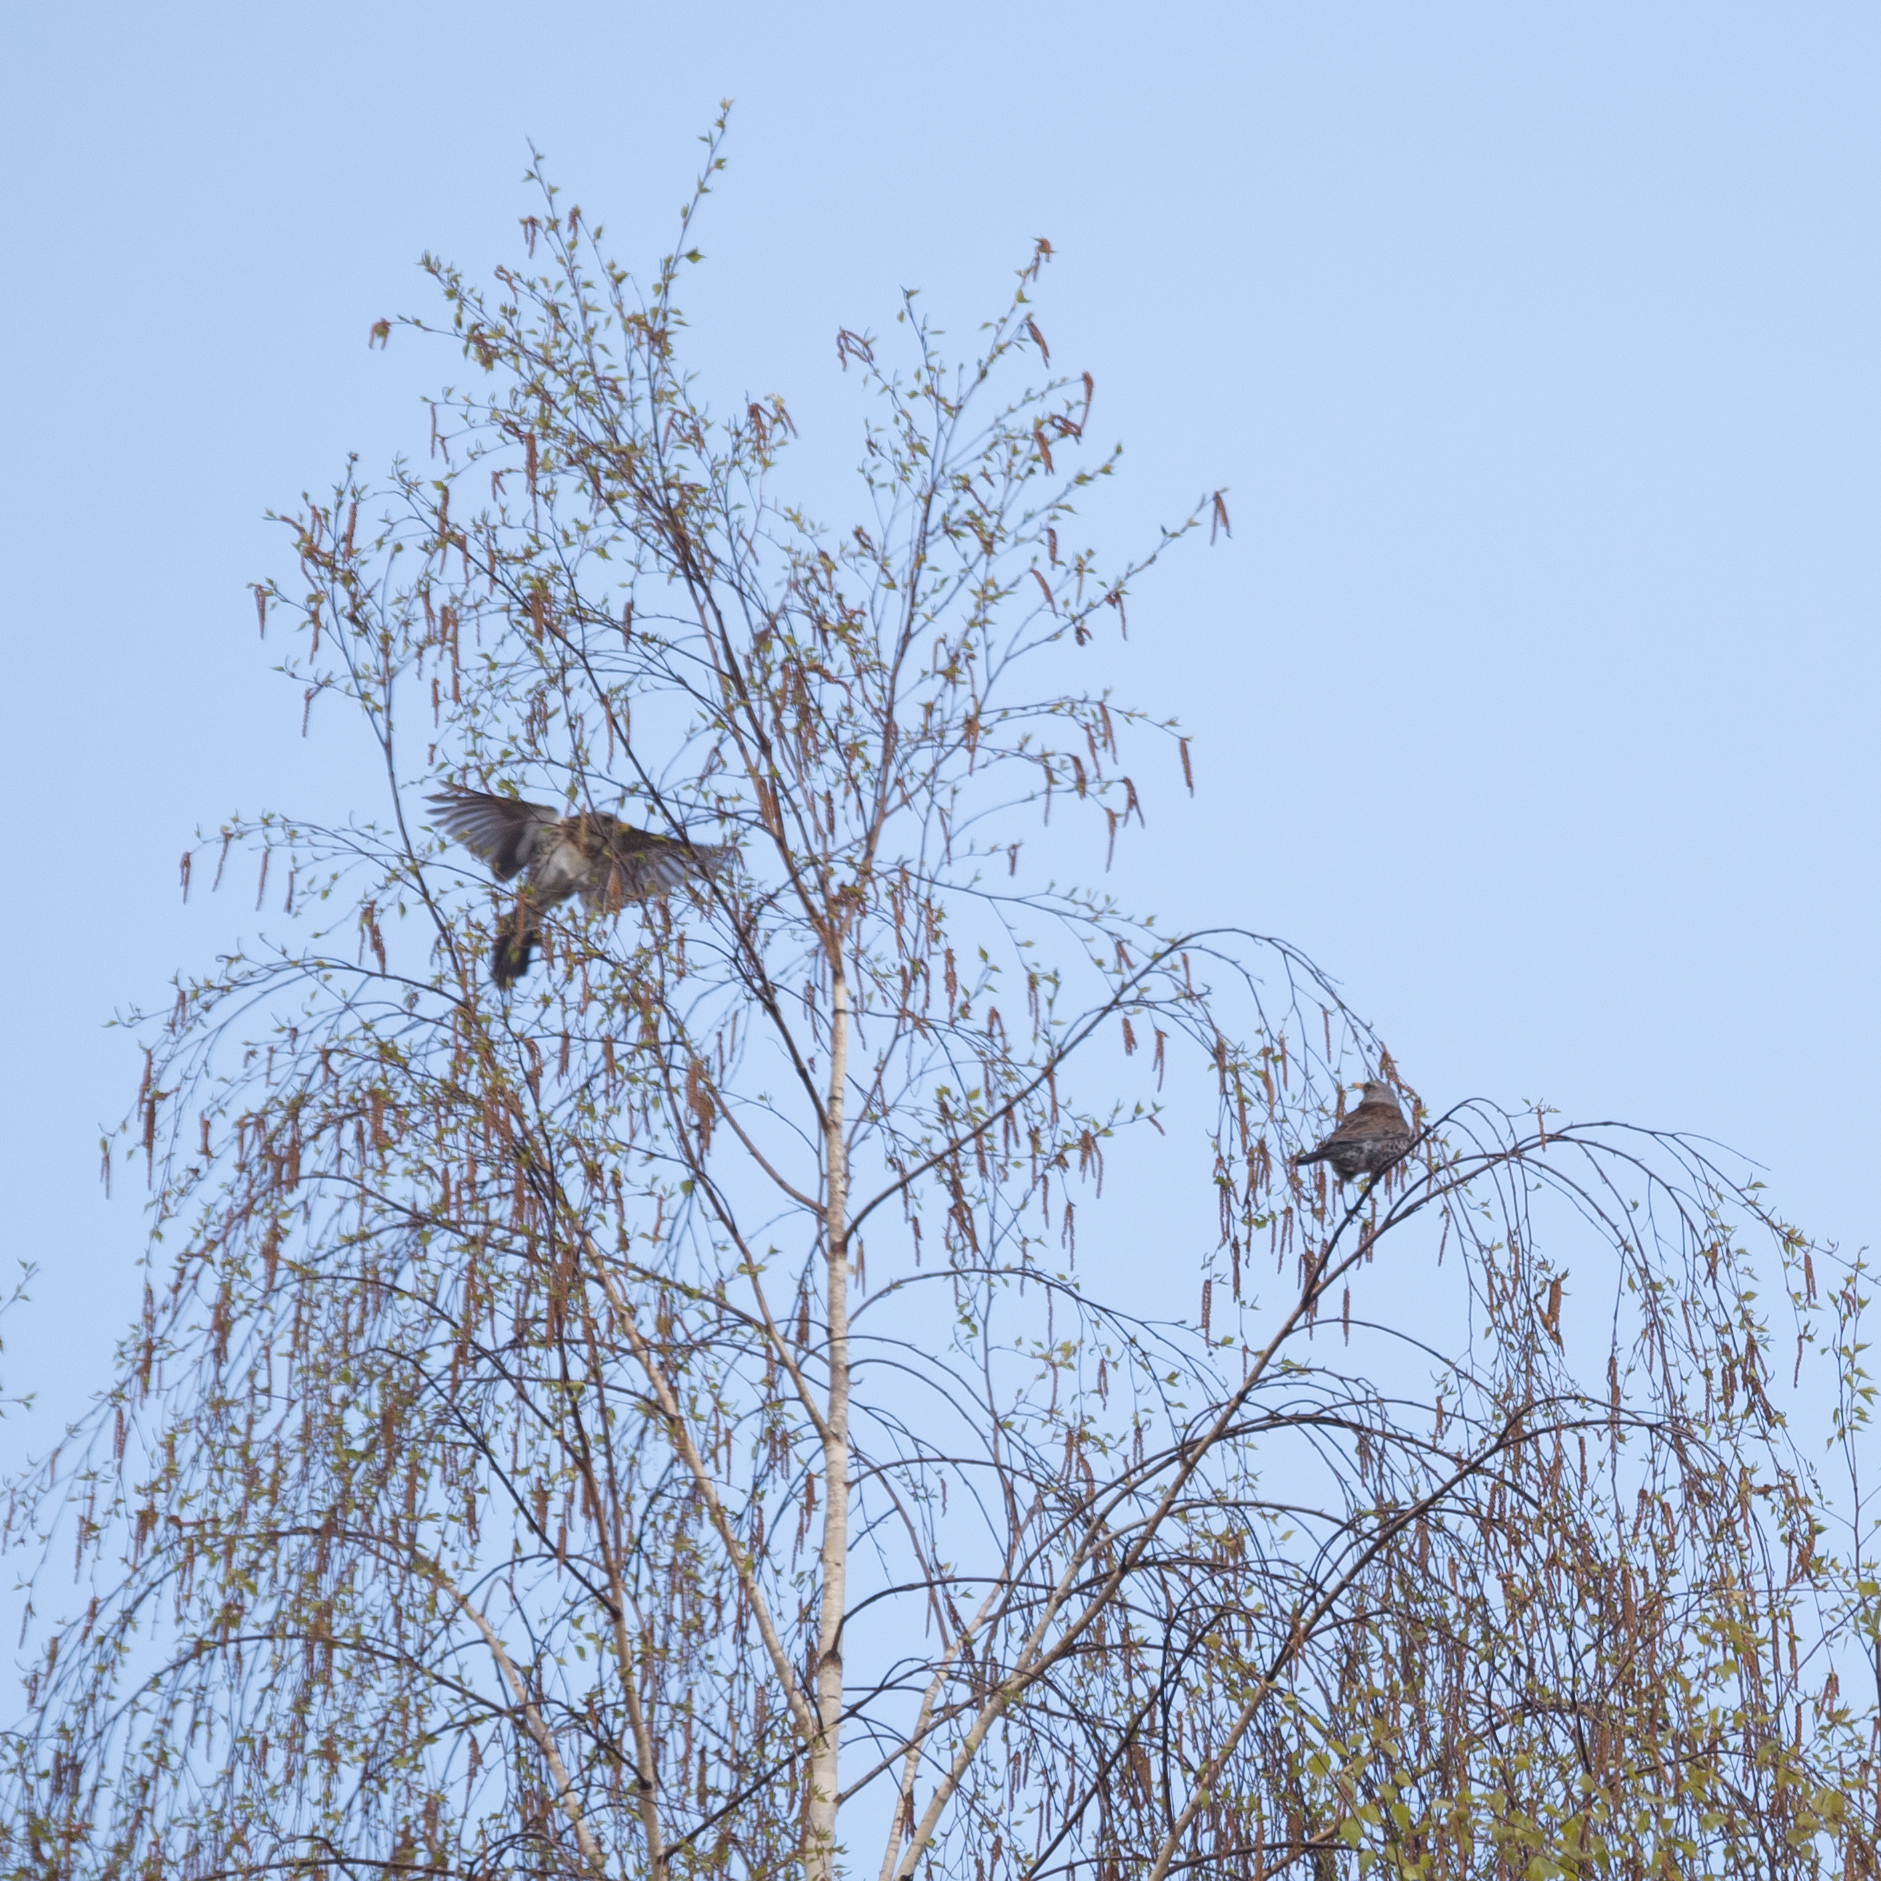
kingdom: Animalia
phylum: Chordata
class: Aves
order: Passeriformes
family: Turdidae
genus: Turdus
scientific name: Turdus pilaris
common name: Fieldfare
